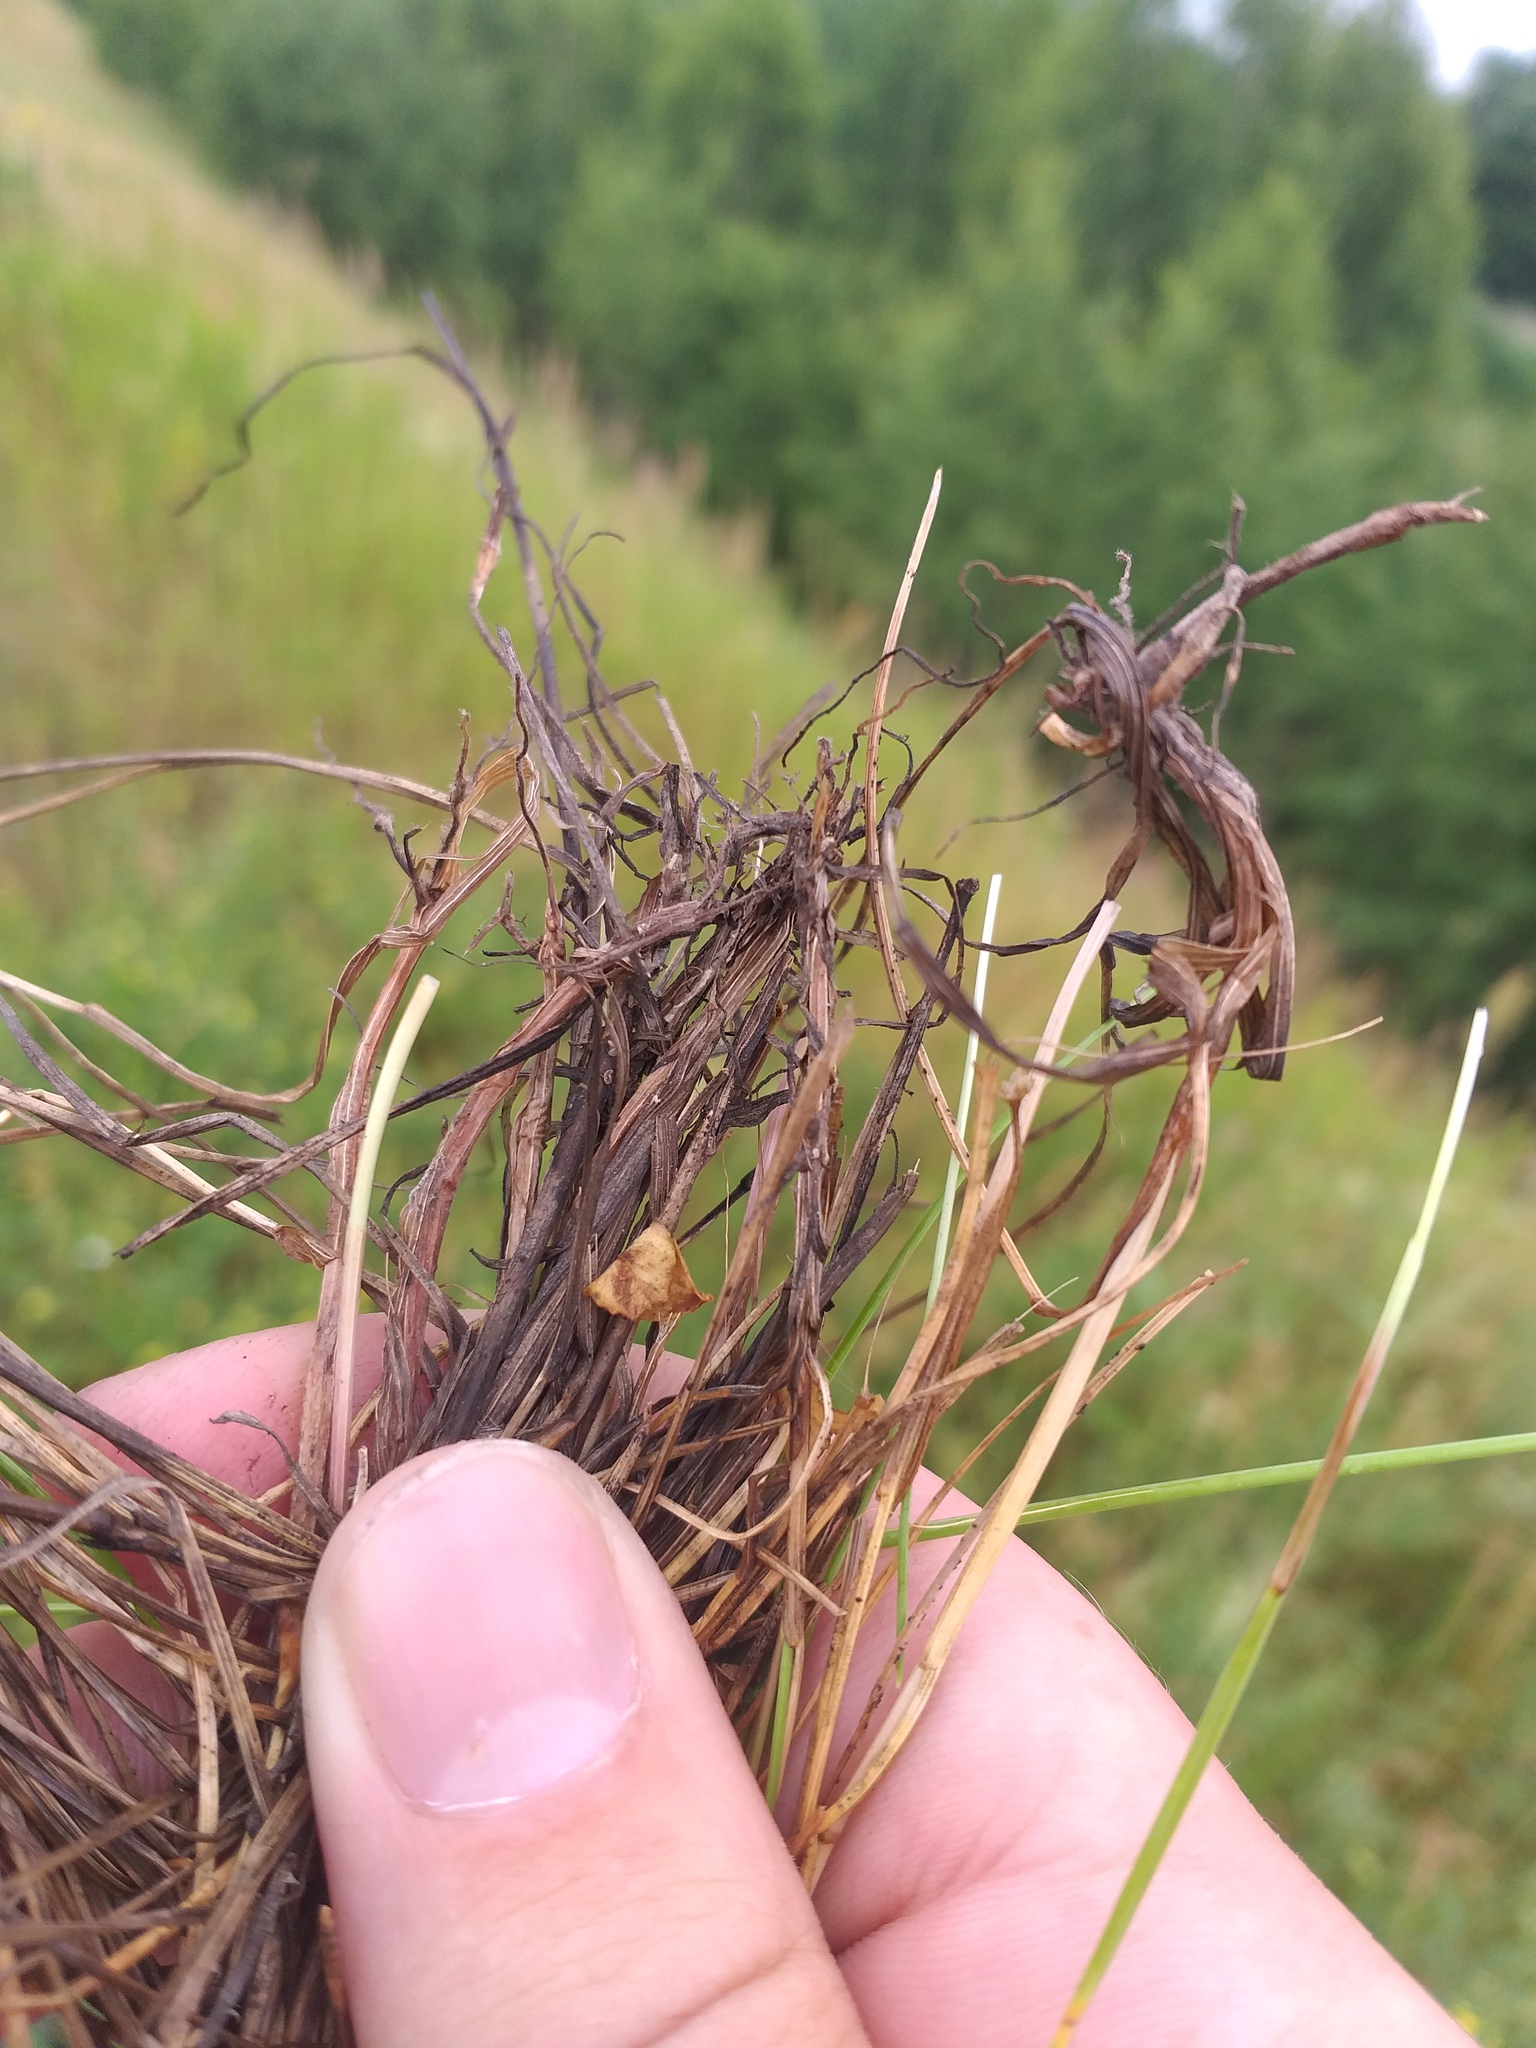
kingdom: Plantae
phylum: Tracheophyta
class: Liliopsida
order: Poales
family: Poaceae
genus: Festuca
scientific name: Festuca rubra
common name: Red fescue
